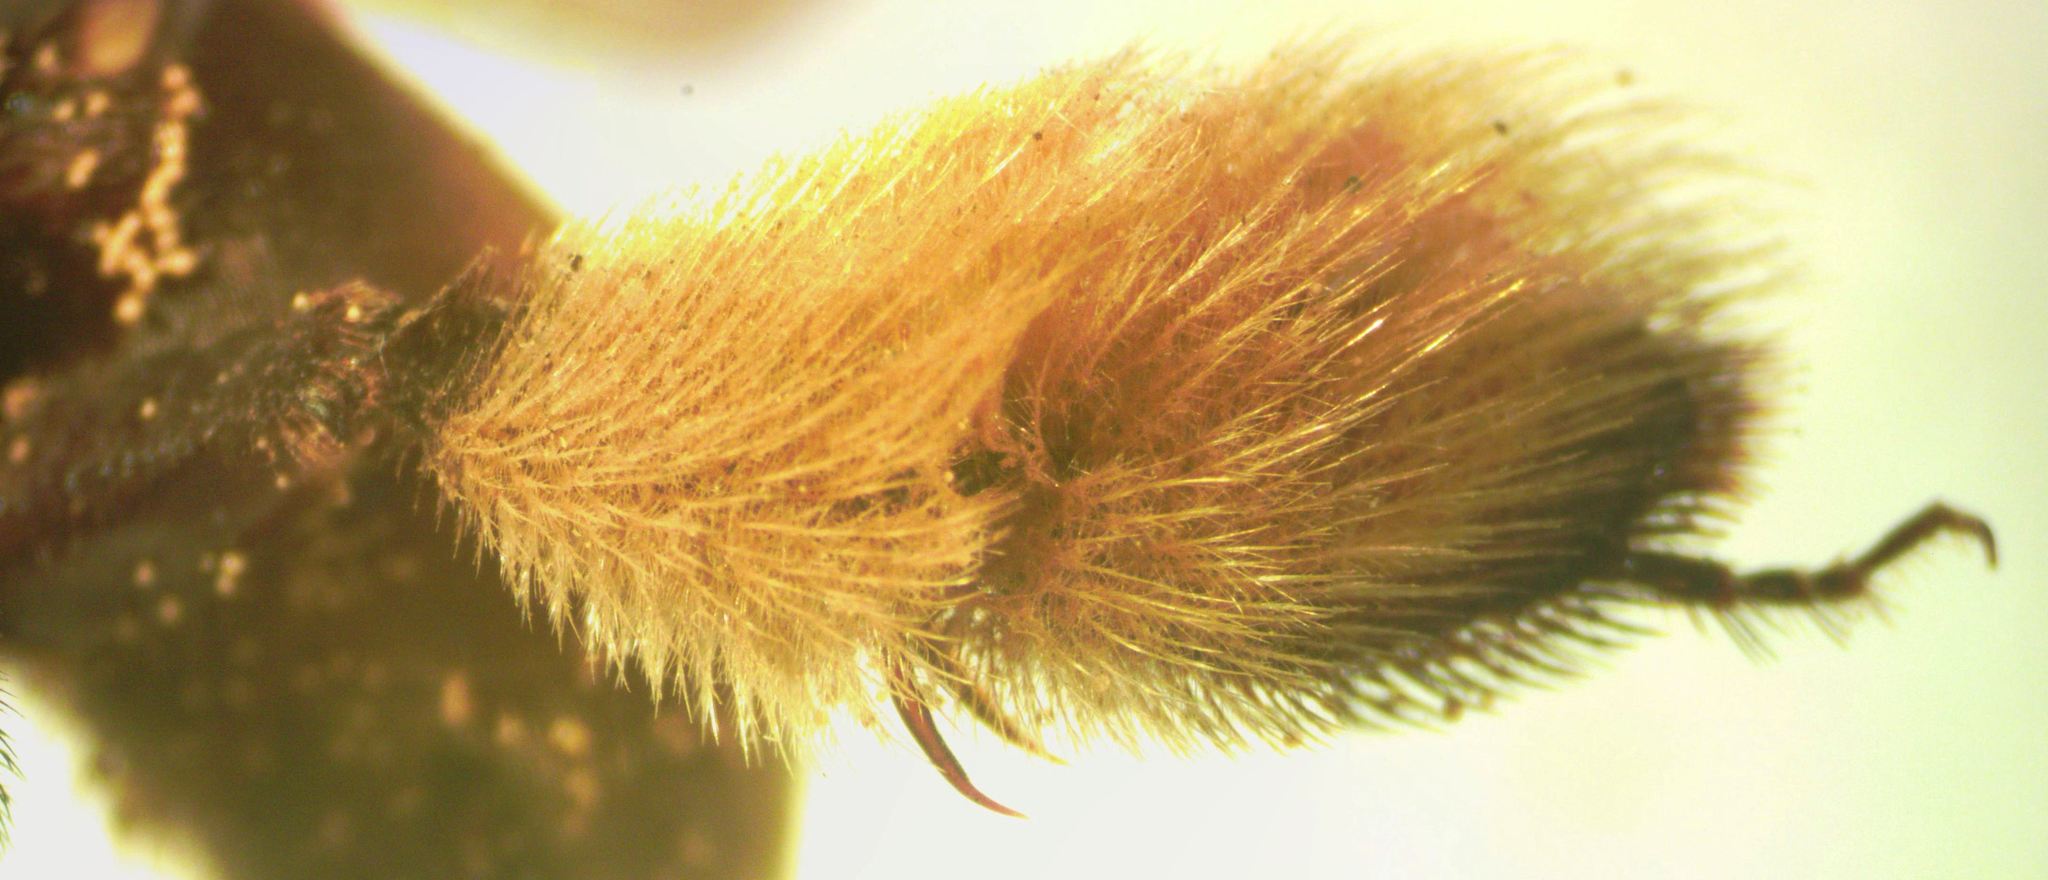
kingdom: Animalia
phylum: Arthropoda
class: Insecta
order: Hymenoptera
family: Apidae
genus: Epicharis
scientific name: Epicharis lunulata
